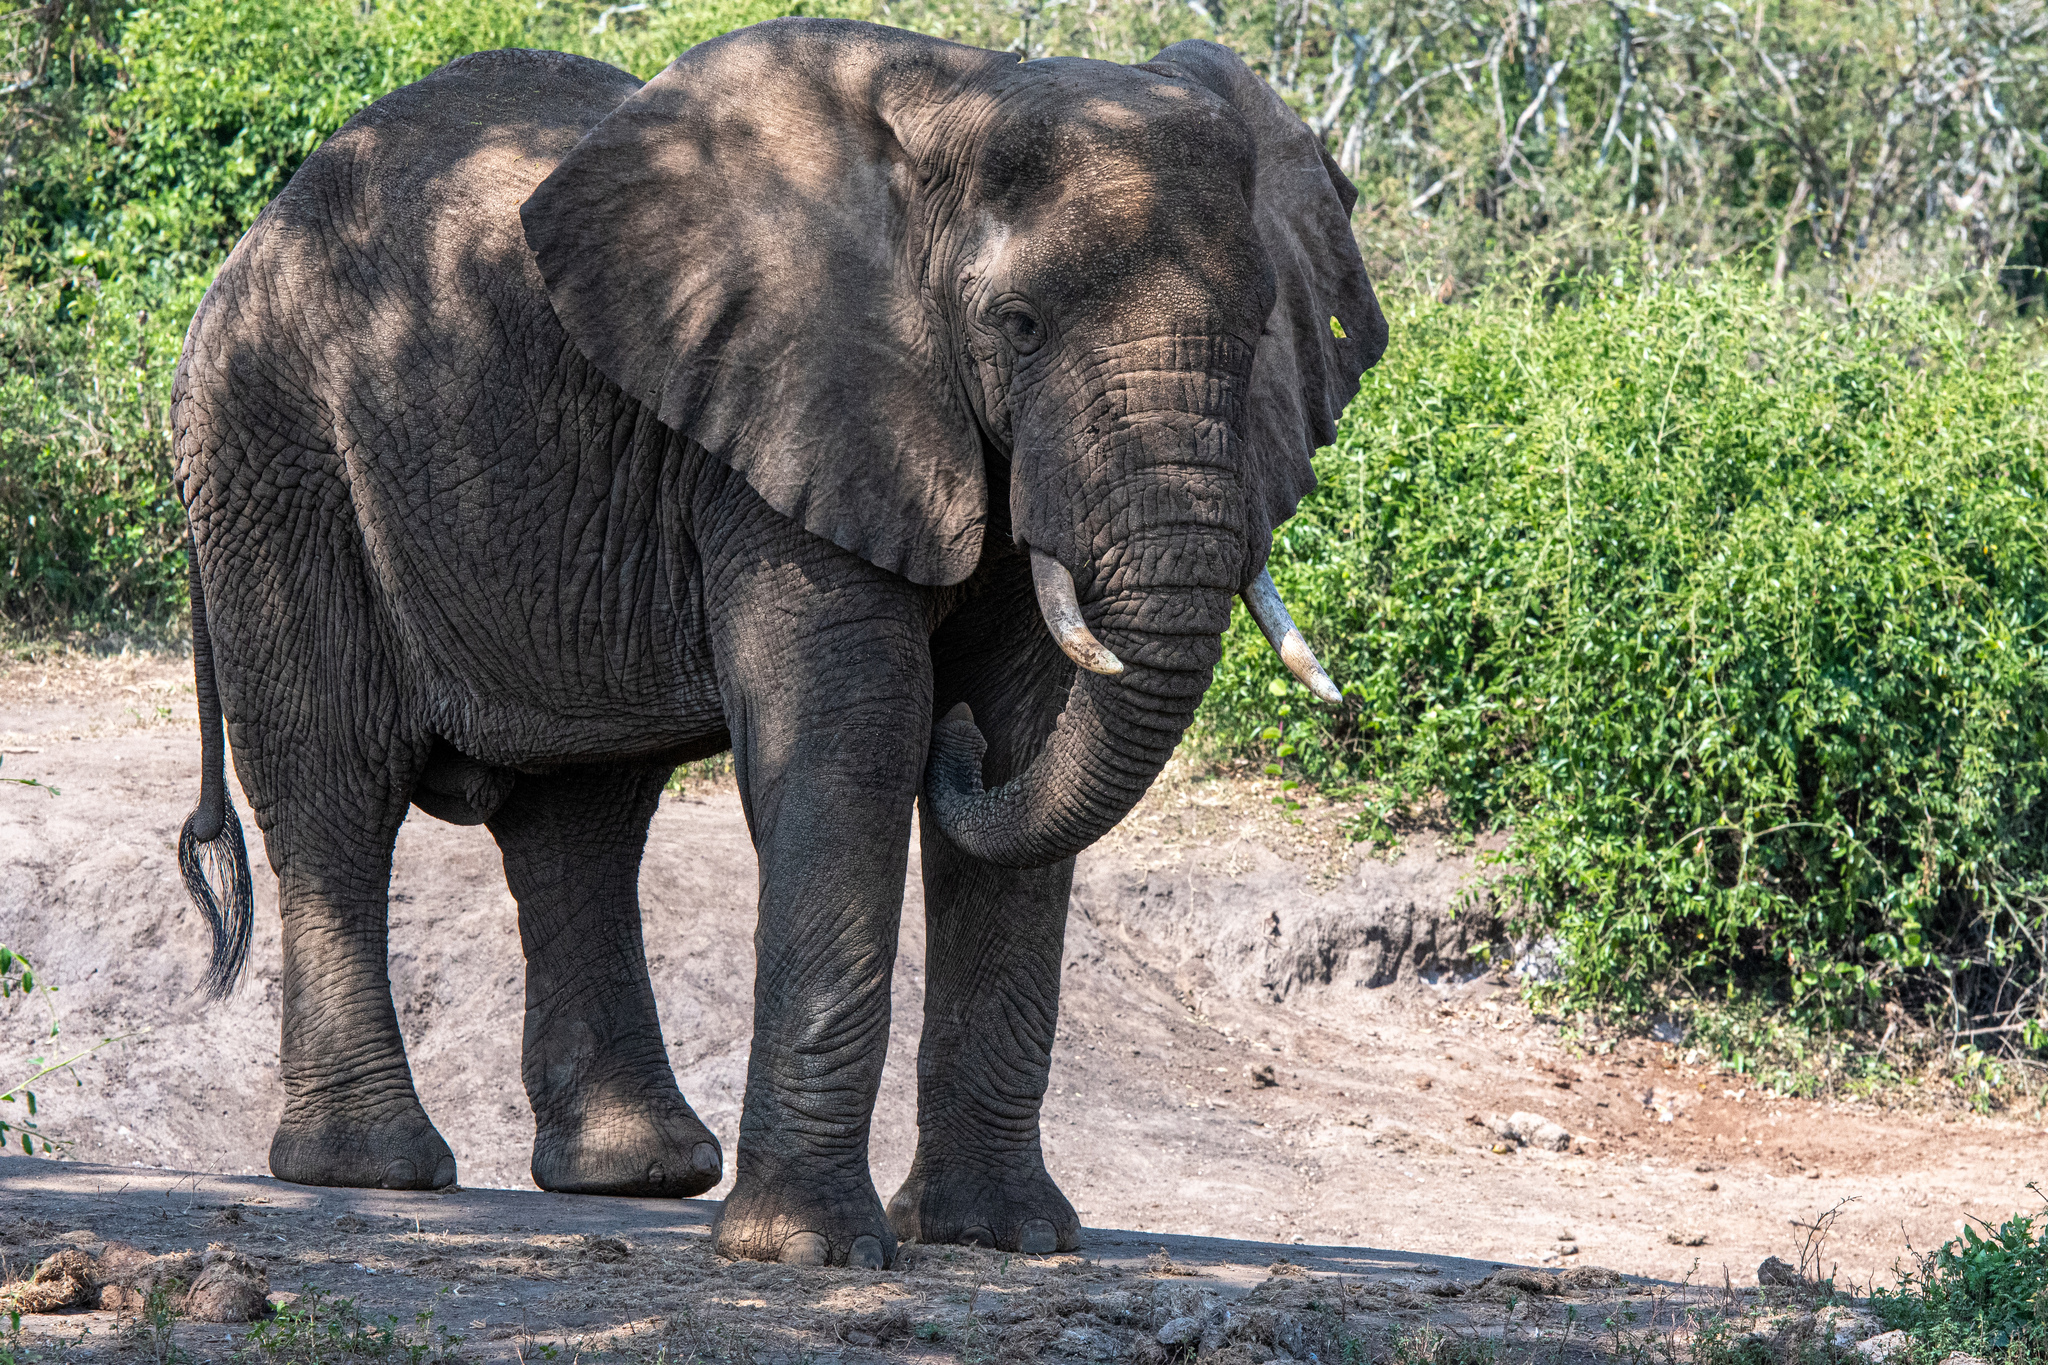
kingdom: Animalia
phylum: Chordata
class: Mammalia
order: Proboscidea
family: Elephantidae
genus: Loxodonta
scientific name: Loxodonta africana
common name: African elephant
